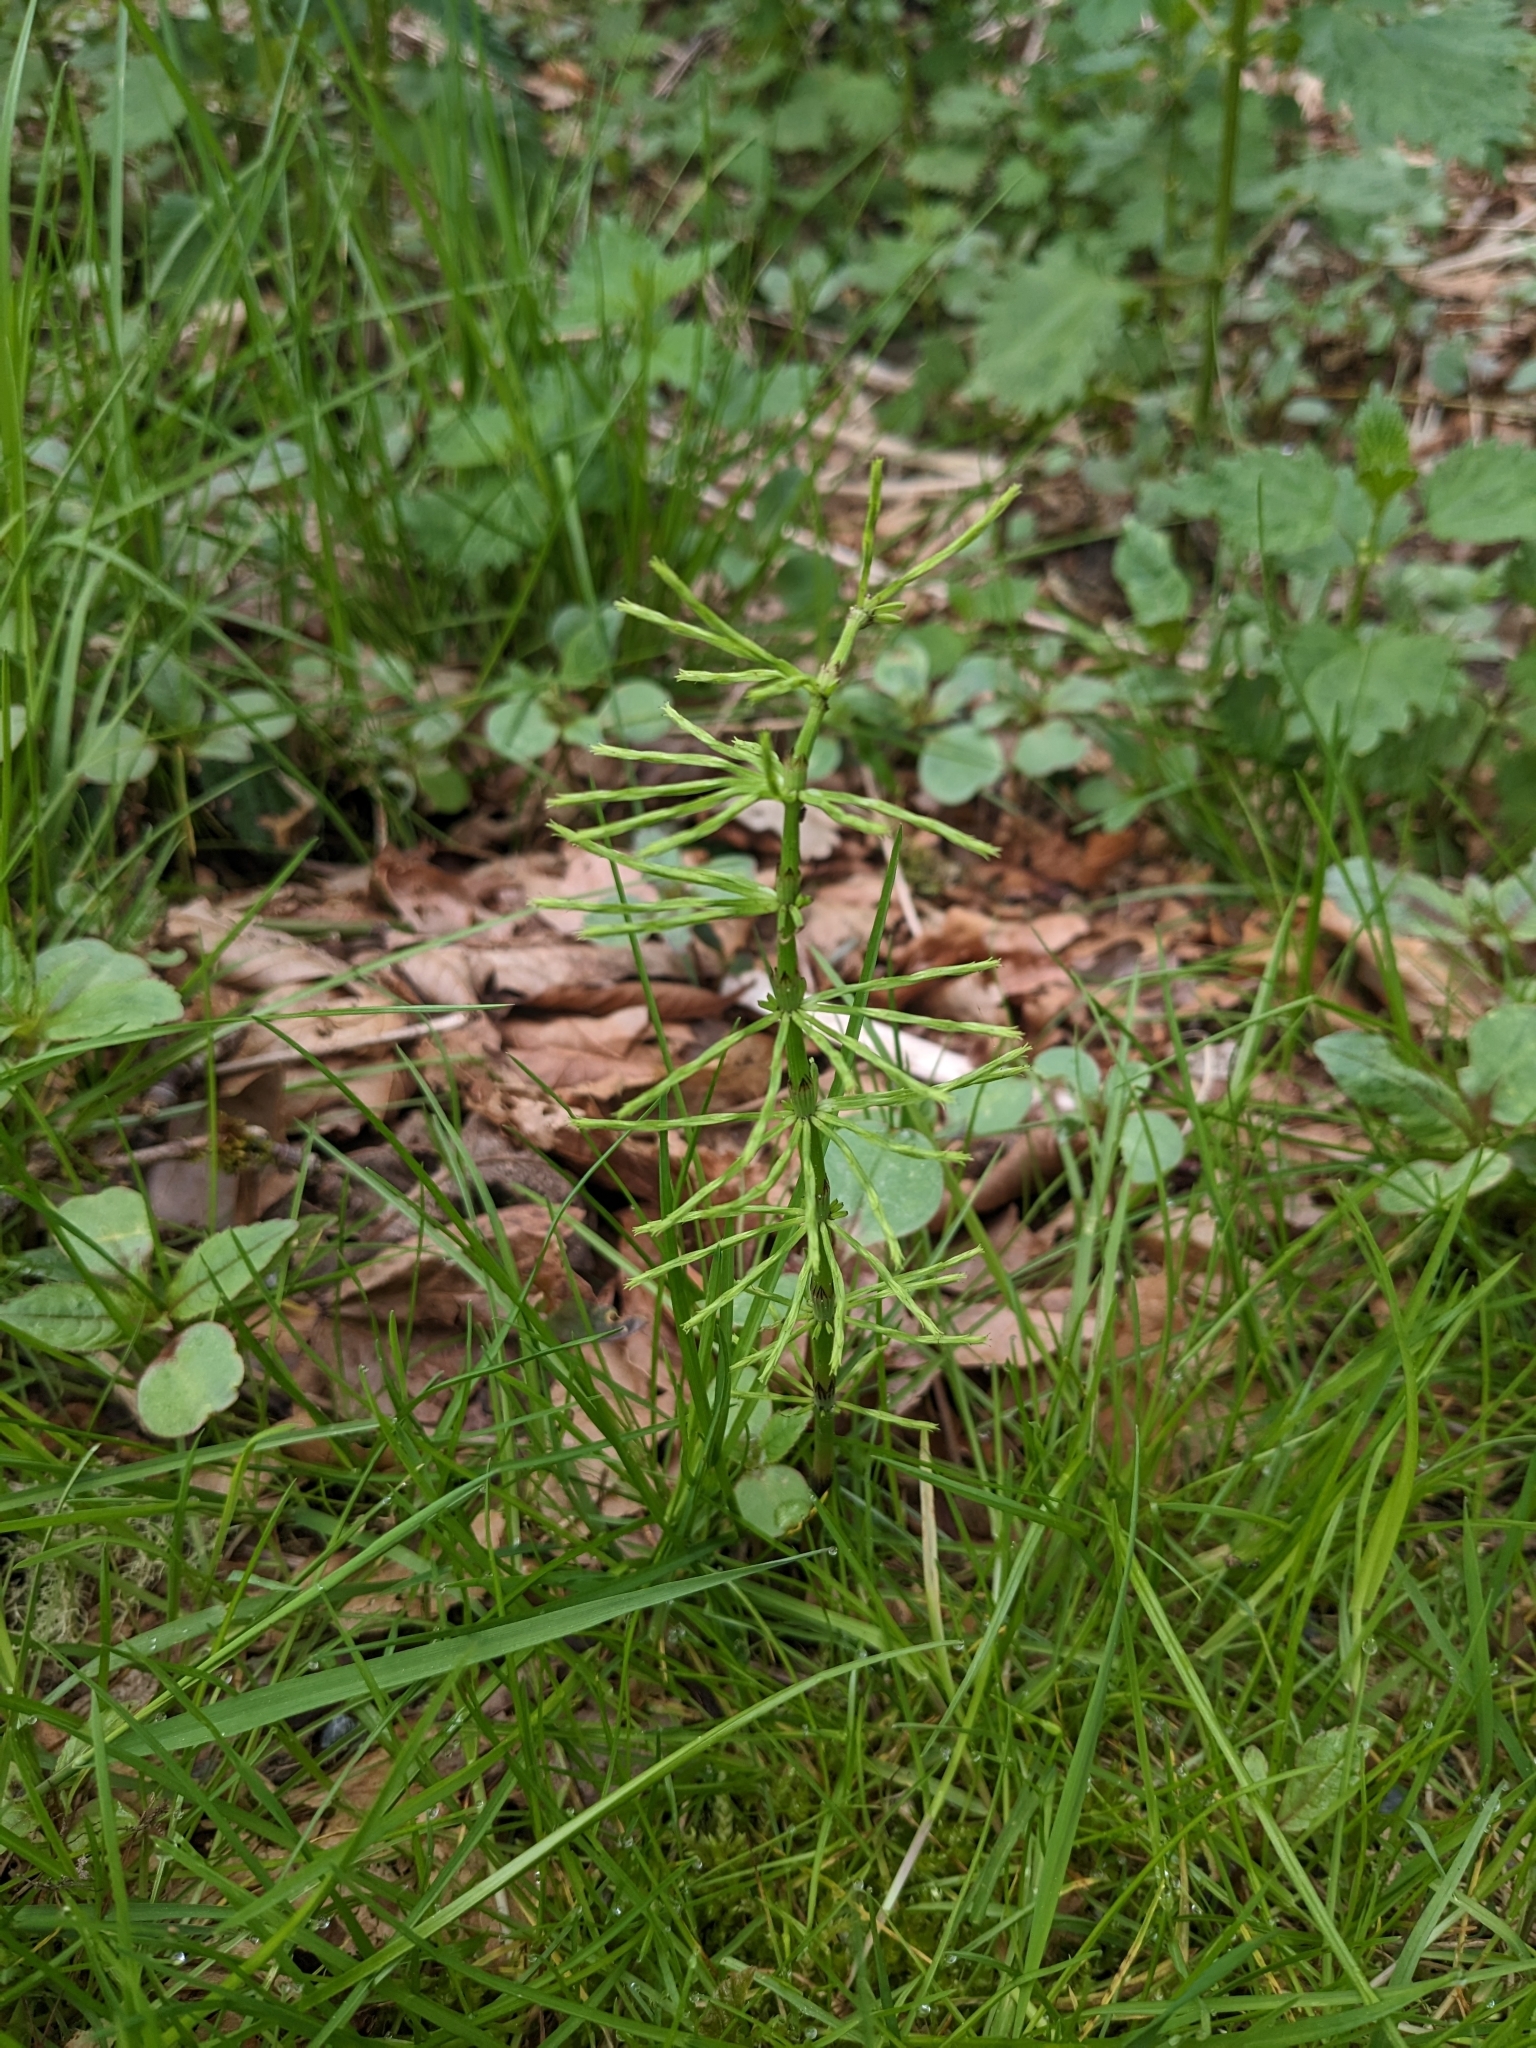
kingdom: Plantae
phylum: Tracheophyta
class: Polypodiopsida
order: Equisetales
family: Equisetaceae
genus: Equisetum
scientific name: Equisetum arvense
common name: Field horsetail
